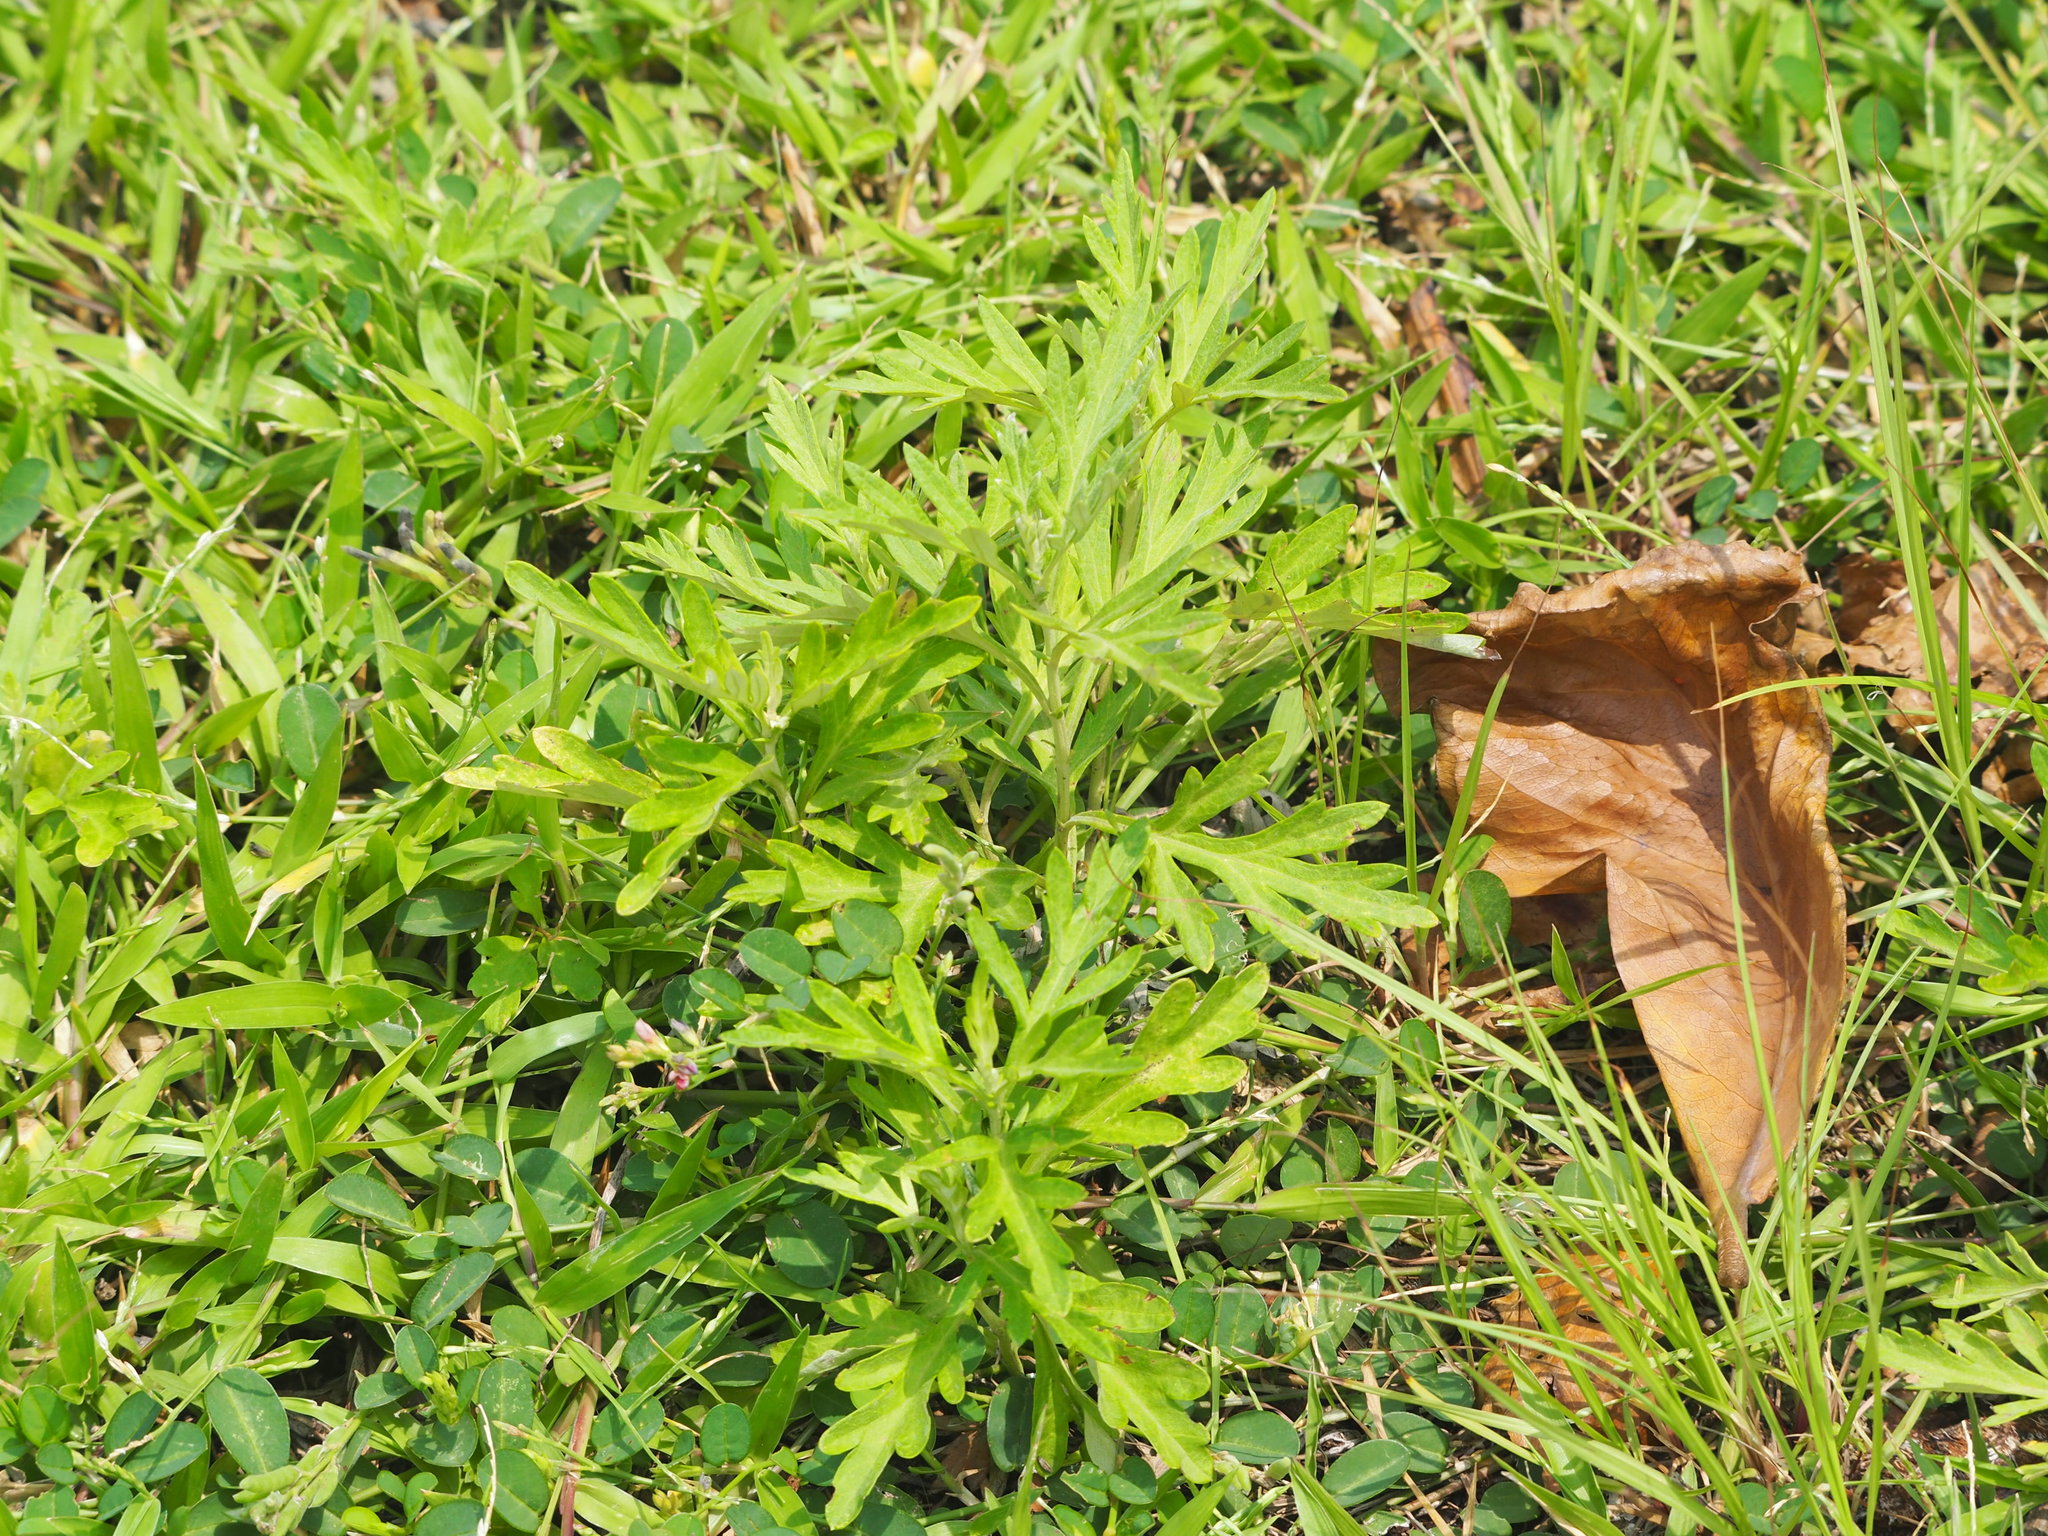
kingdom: Plantae
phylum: Tracheophyta
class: Magnoliopsida
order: Asterales
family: Asteraceae
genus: Artemisia
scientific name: Artemisia indica
